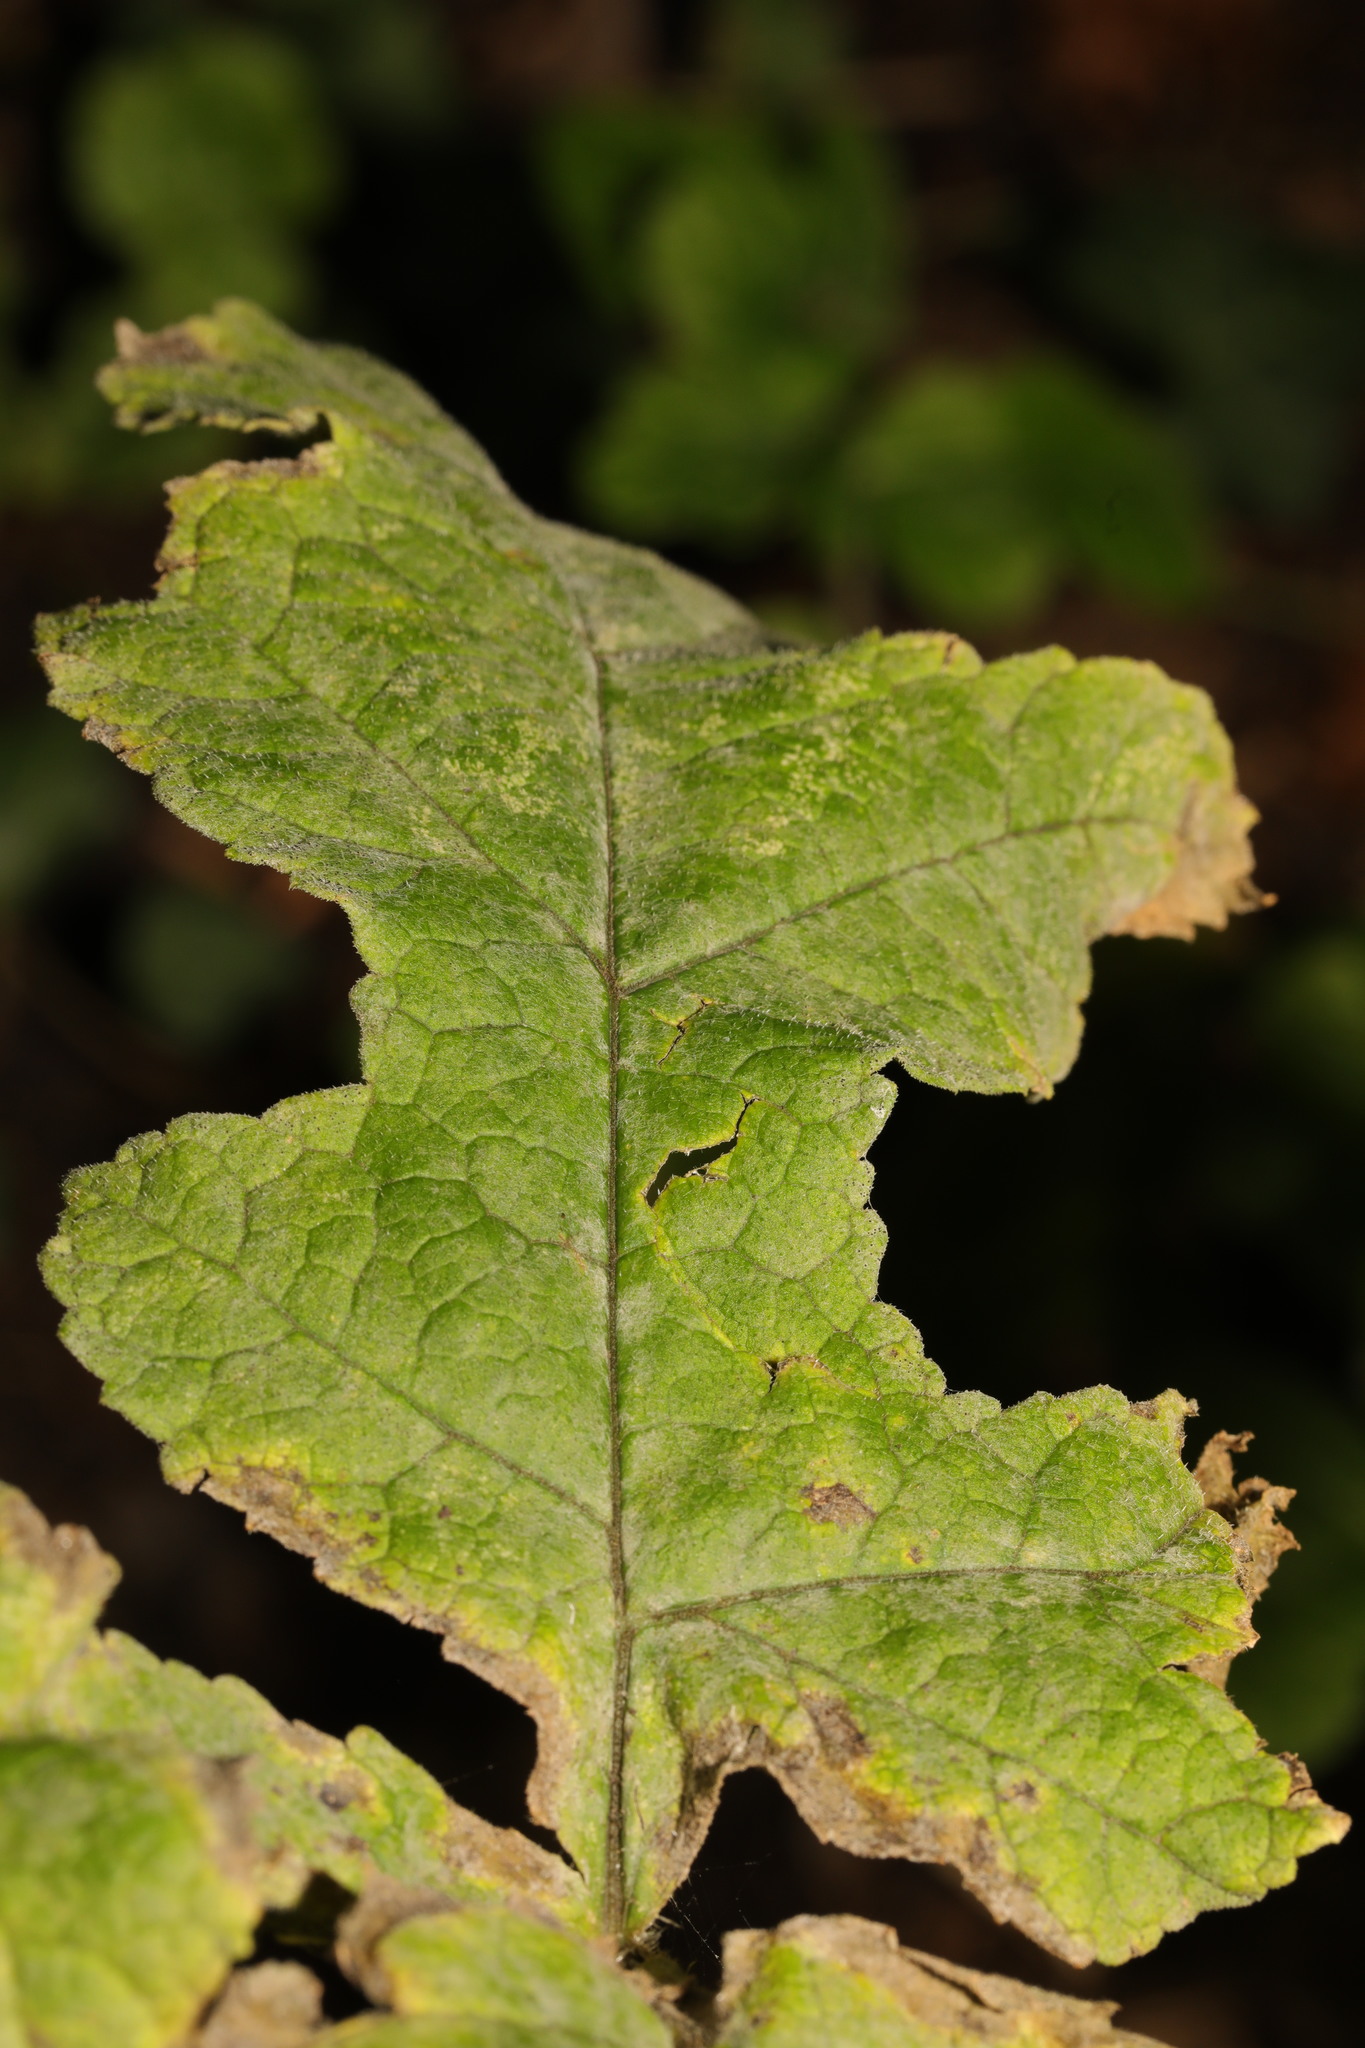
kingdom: Fungi
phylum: Ascomycota
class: Leotiomycetes
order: Helotiales
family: Erysiphaceae
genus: Erysiphe
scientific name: Erysiphe heraclei
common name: Umbellifer mildew
